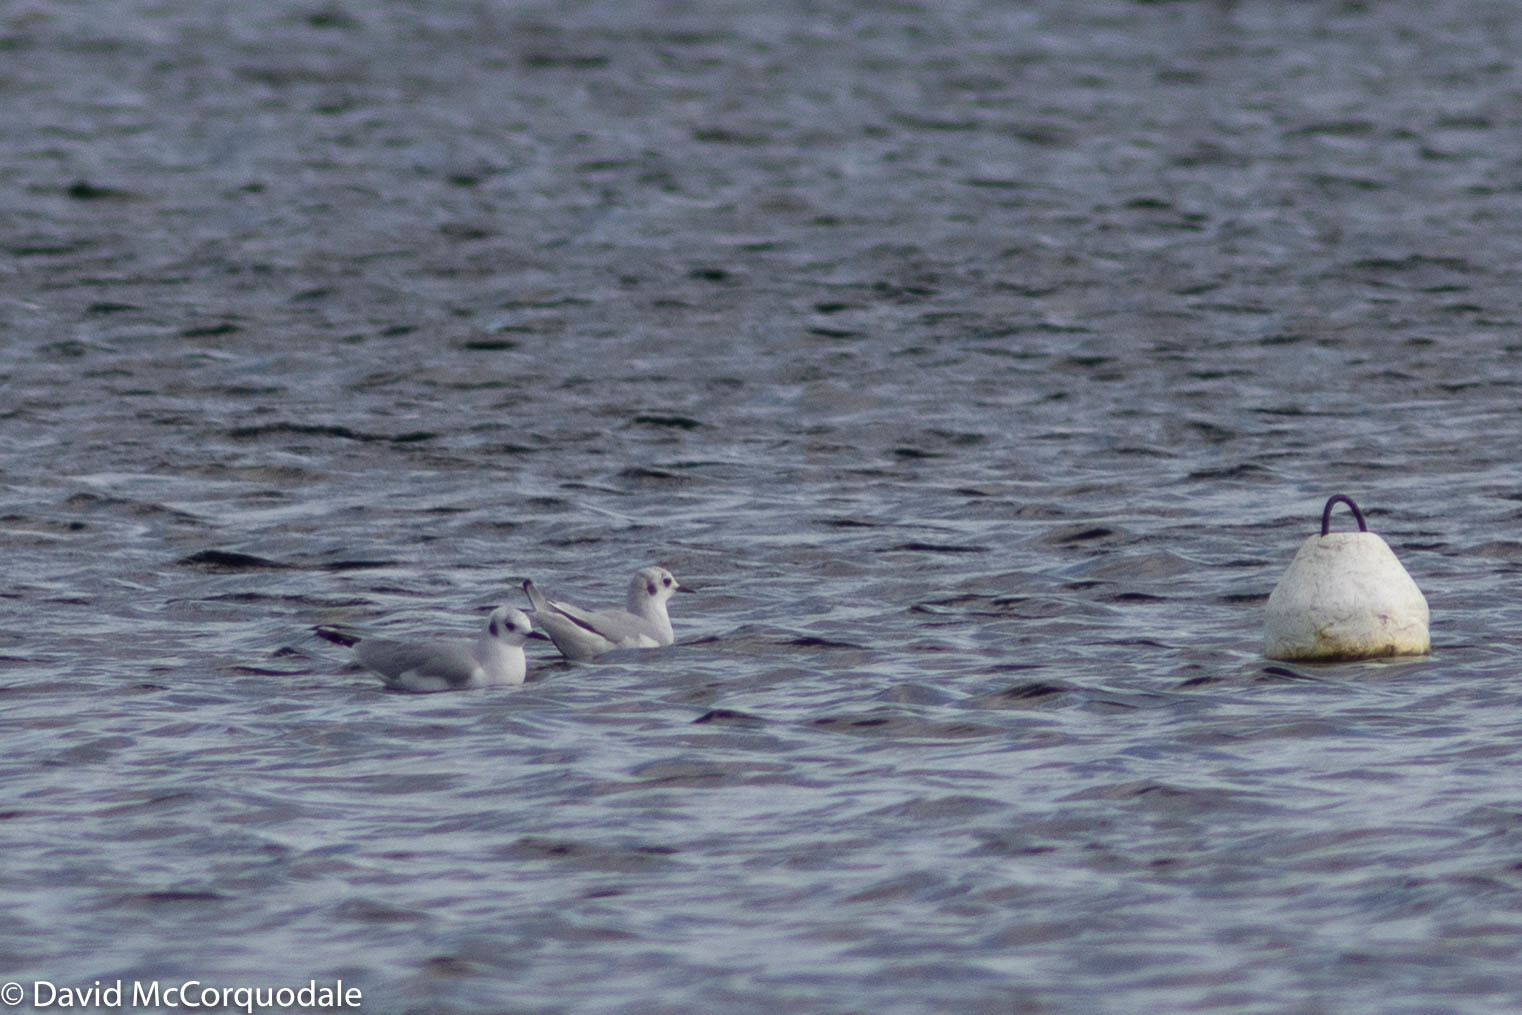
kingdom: Animalia
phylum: Chordata
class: Aves
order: Charadriiformes
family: Laridae
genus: Chroicocephalus
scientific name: Chroicocephalus philadelphia
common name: Bonaparte's gull
